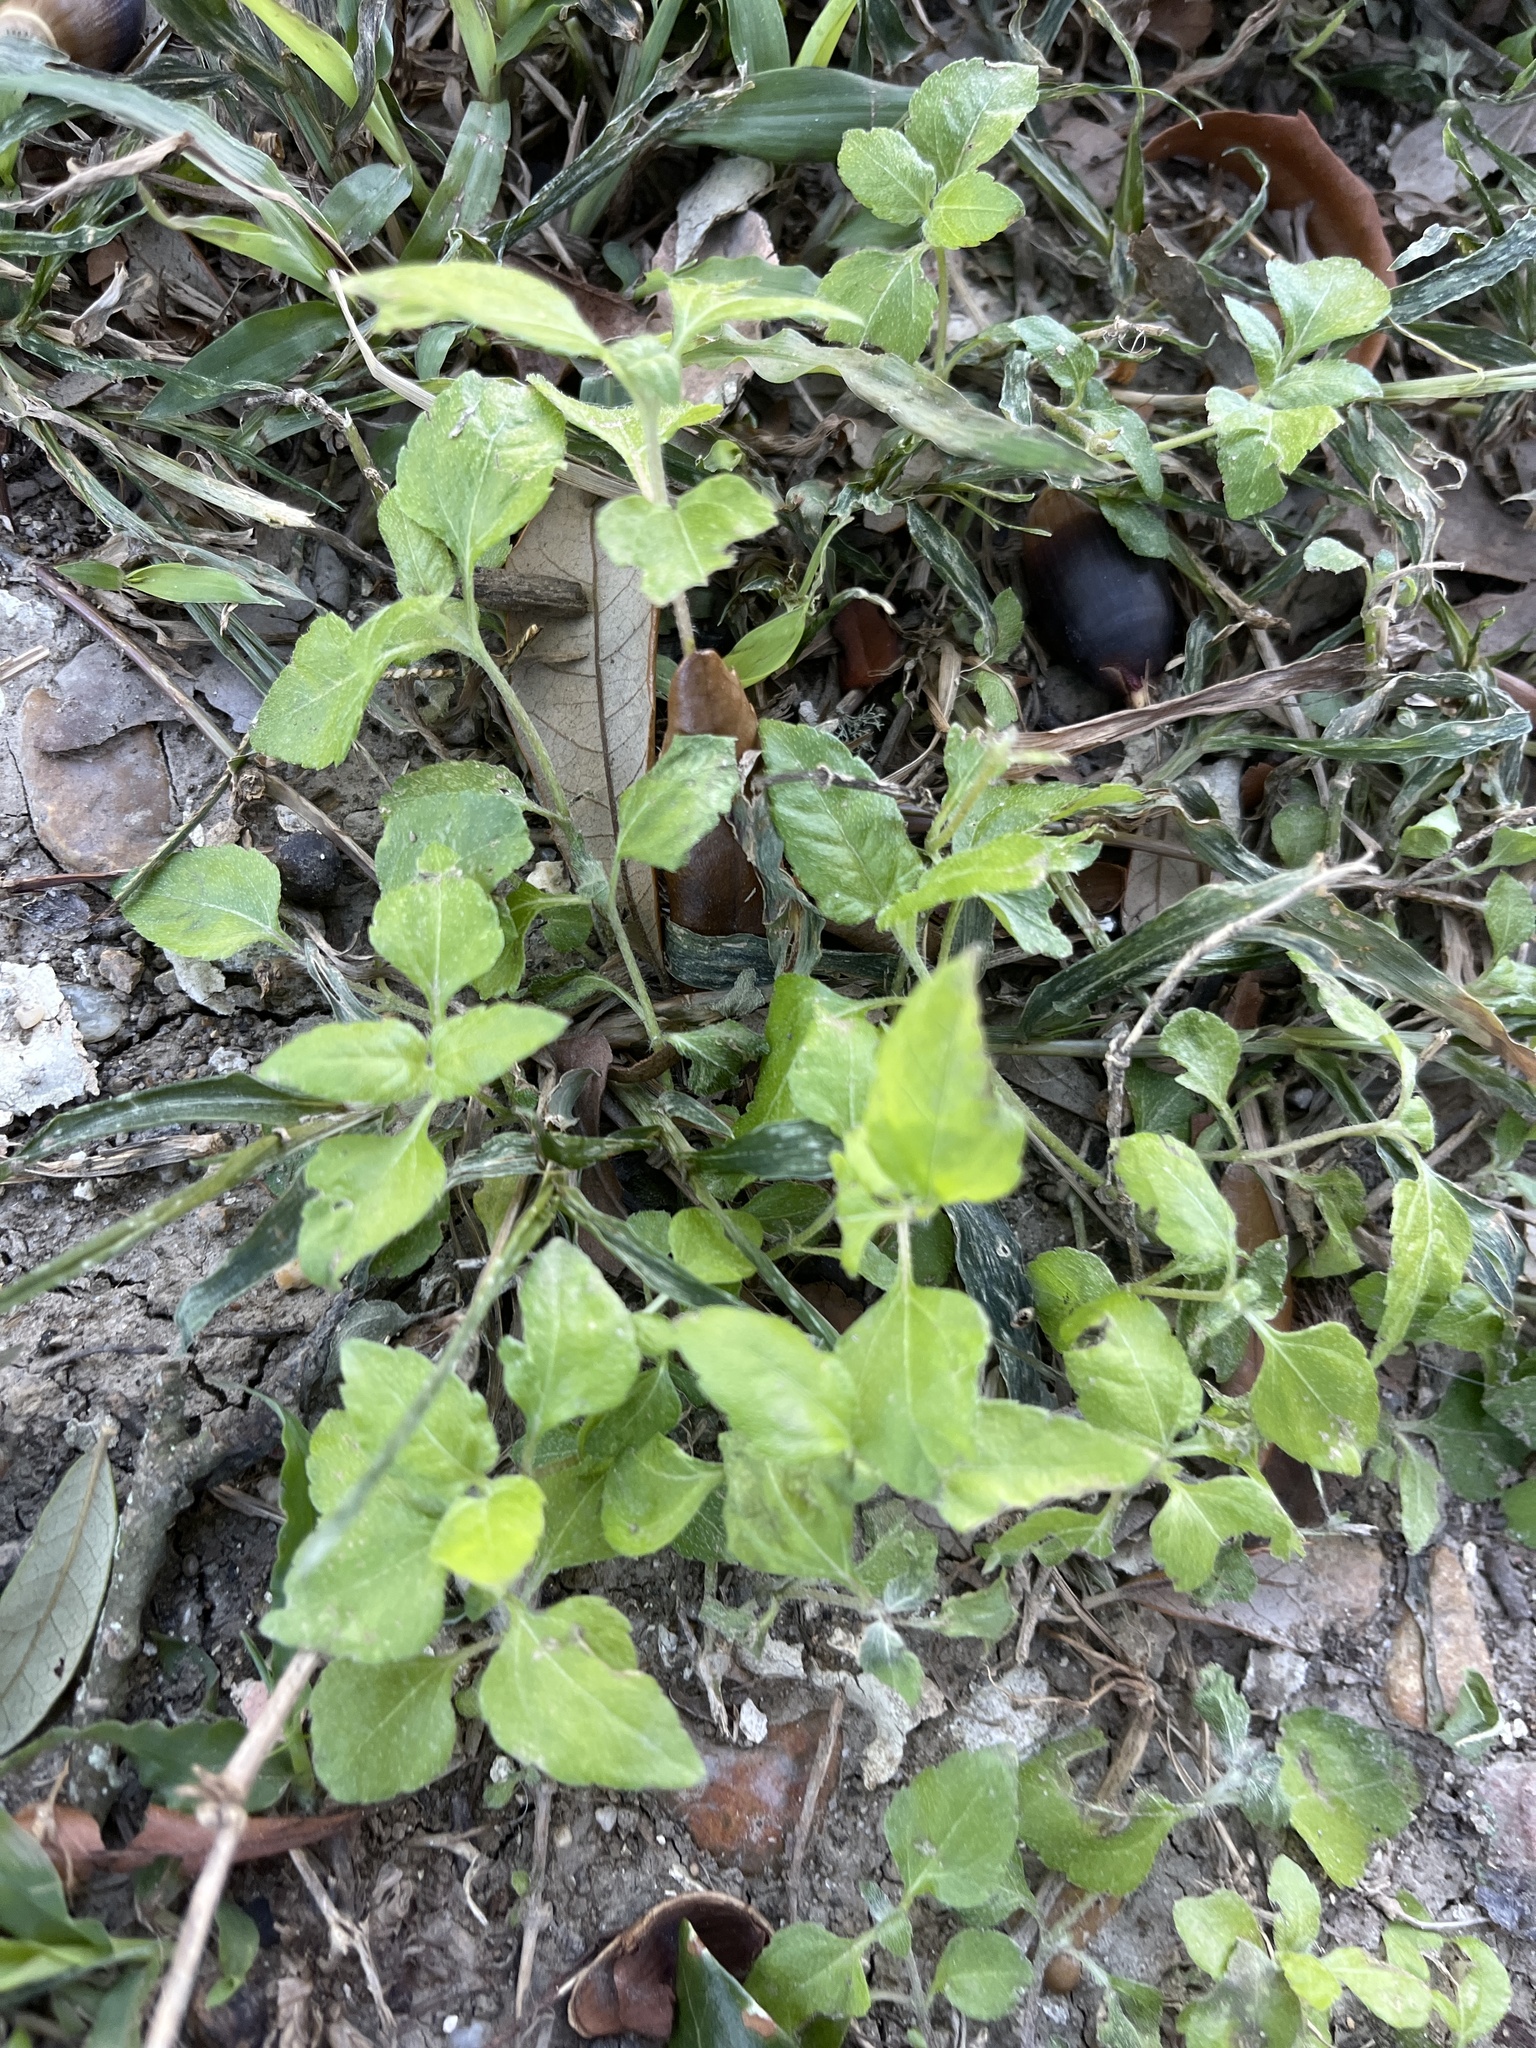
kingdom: Plantae
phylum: Tracheophyta
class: Magnoliopsida
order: Asterales
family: Asteraceae
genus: Calyptocarpus
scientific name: Calyptocarpus vialis
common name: Straggler daisy
